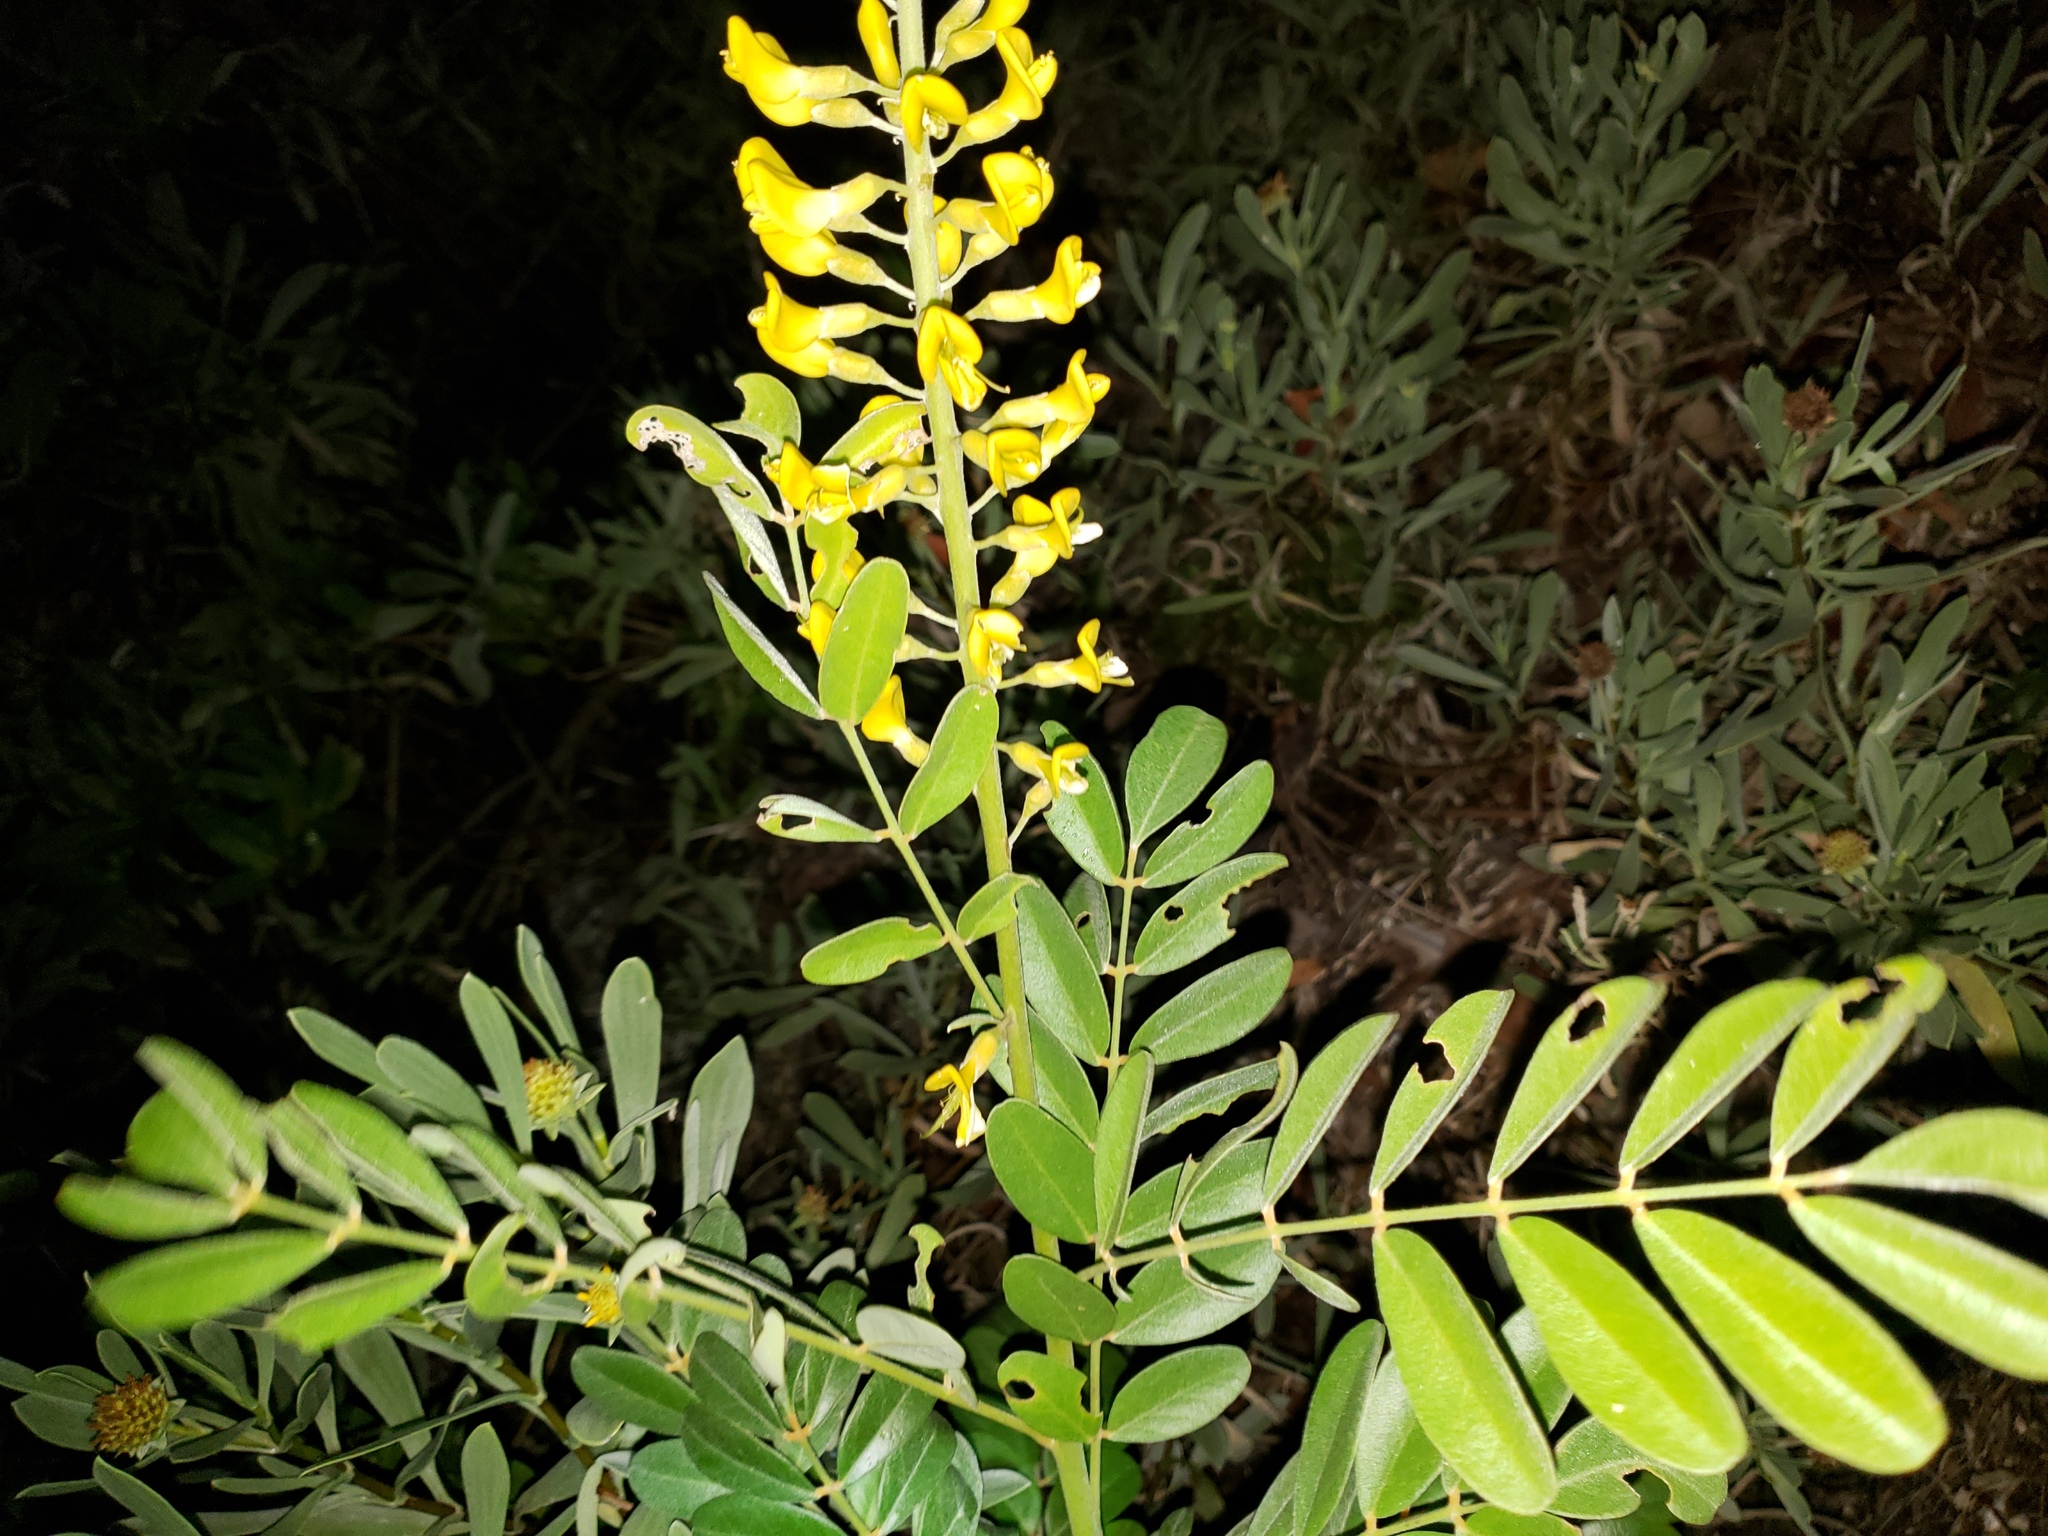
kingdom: Plantae
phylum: Tracheophyta
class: Magnoliopsida
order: Fabales
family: Fabaceae
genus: Sophora
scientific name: Sophora tomentosa
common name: Yellow necklacepod
